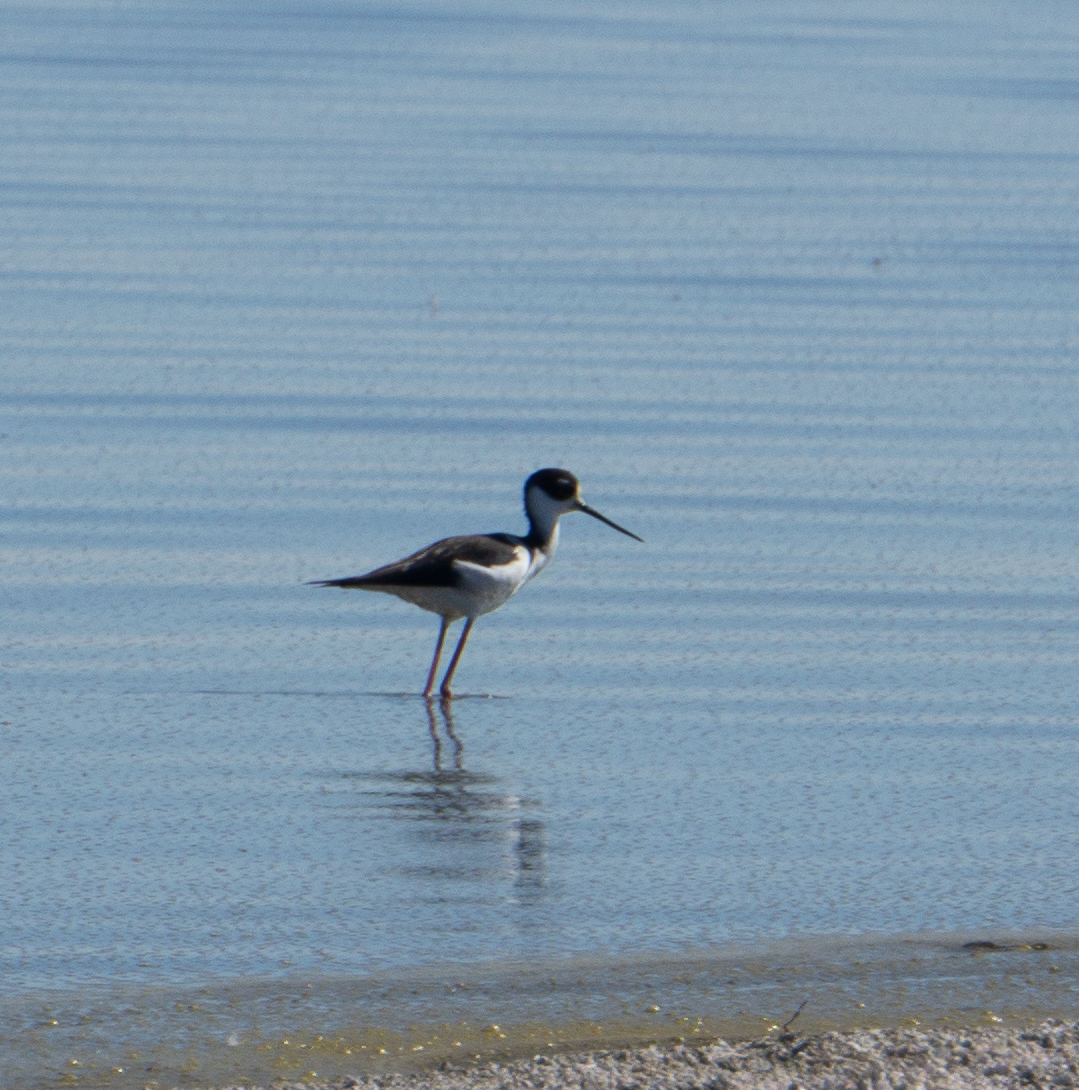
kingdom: Animalia
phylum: Chordata
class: Aves
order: Charadriiformes
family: Recurvirostridae
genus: Himantopus
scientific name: Himantopus mexicanus
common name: Black-necked stilt
